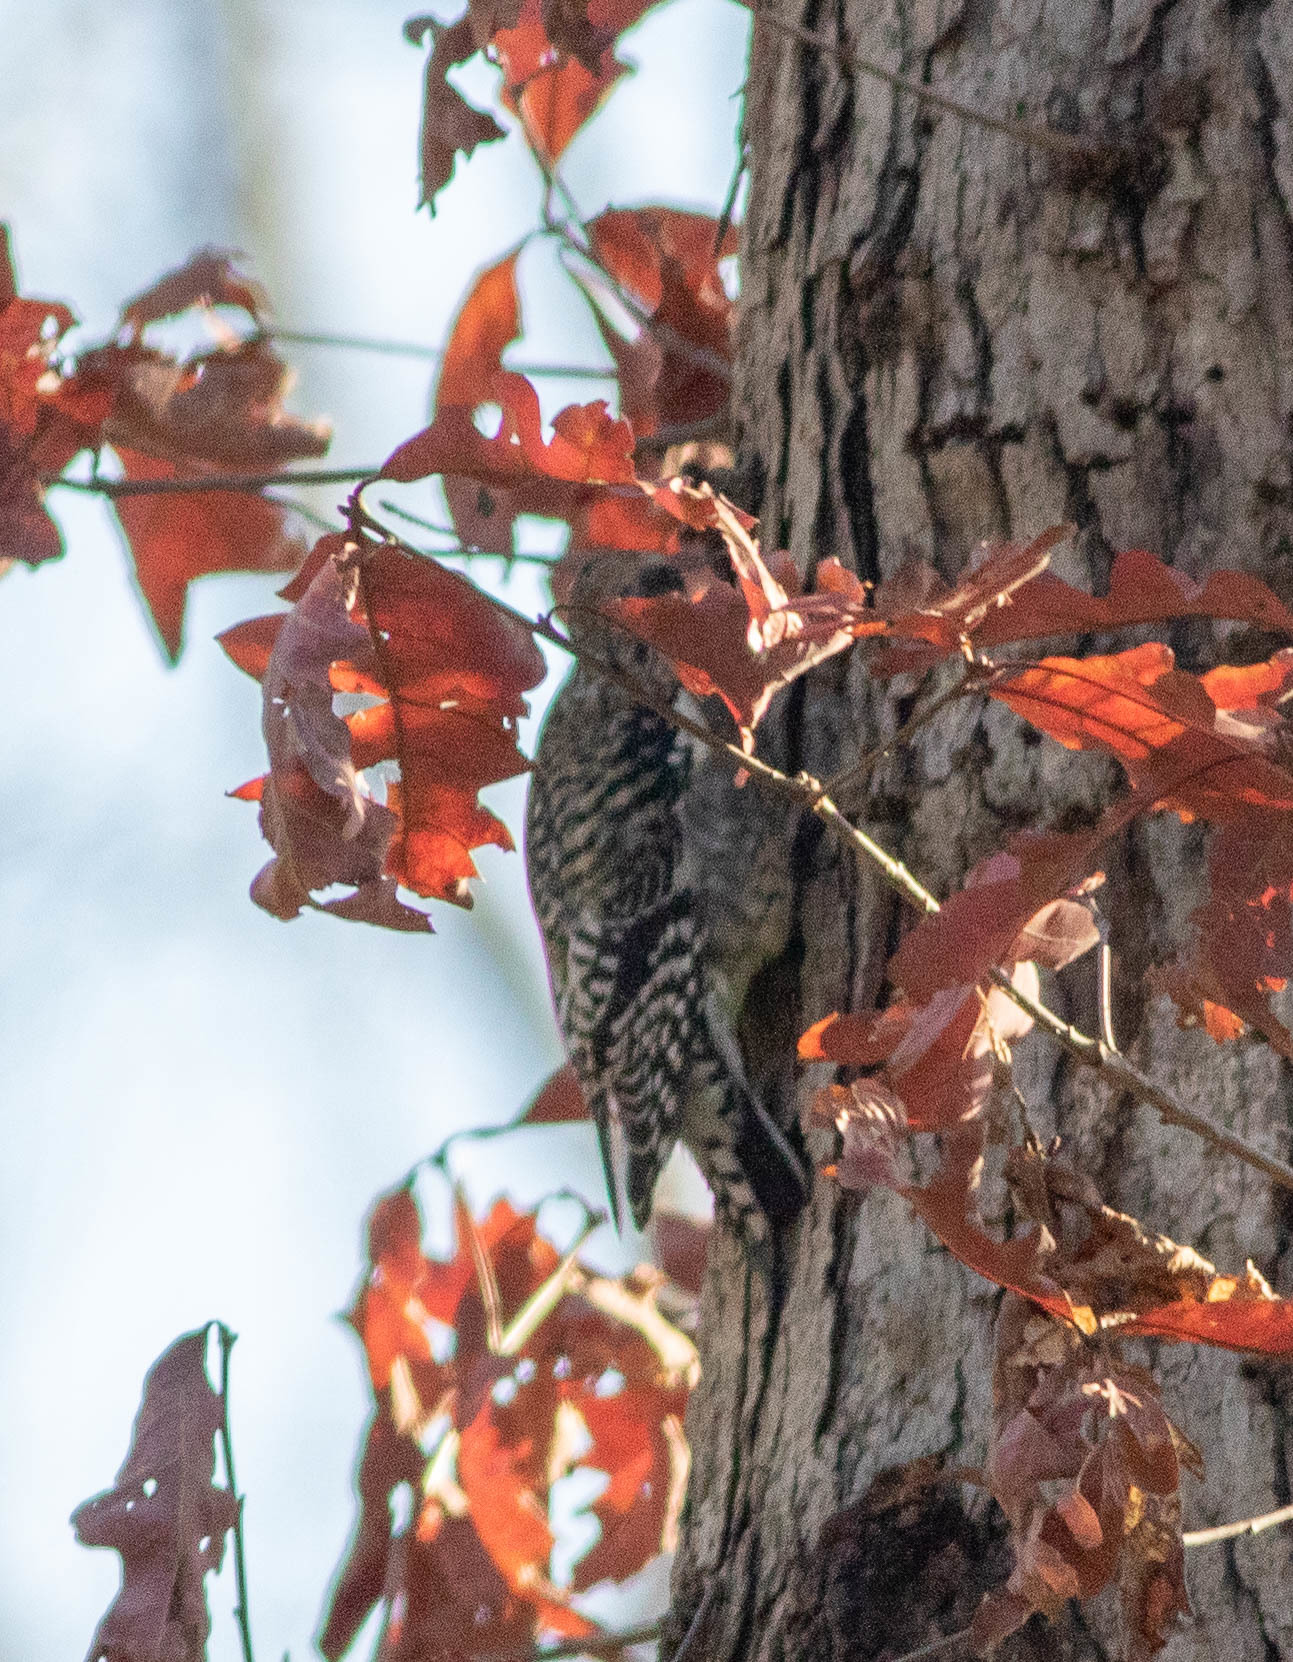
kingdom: Animalia
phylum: Chordata
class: Aves
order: Piciformes
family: Picidae
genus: Sphyrapicus
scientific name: Sphyrapicus varius
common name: Yellow-bellied sapsucker
